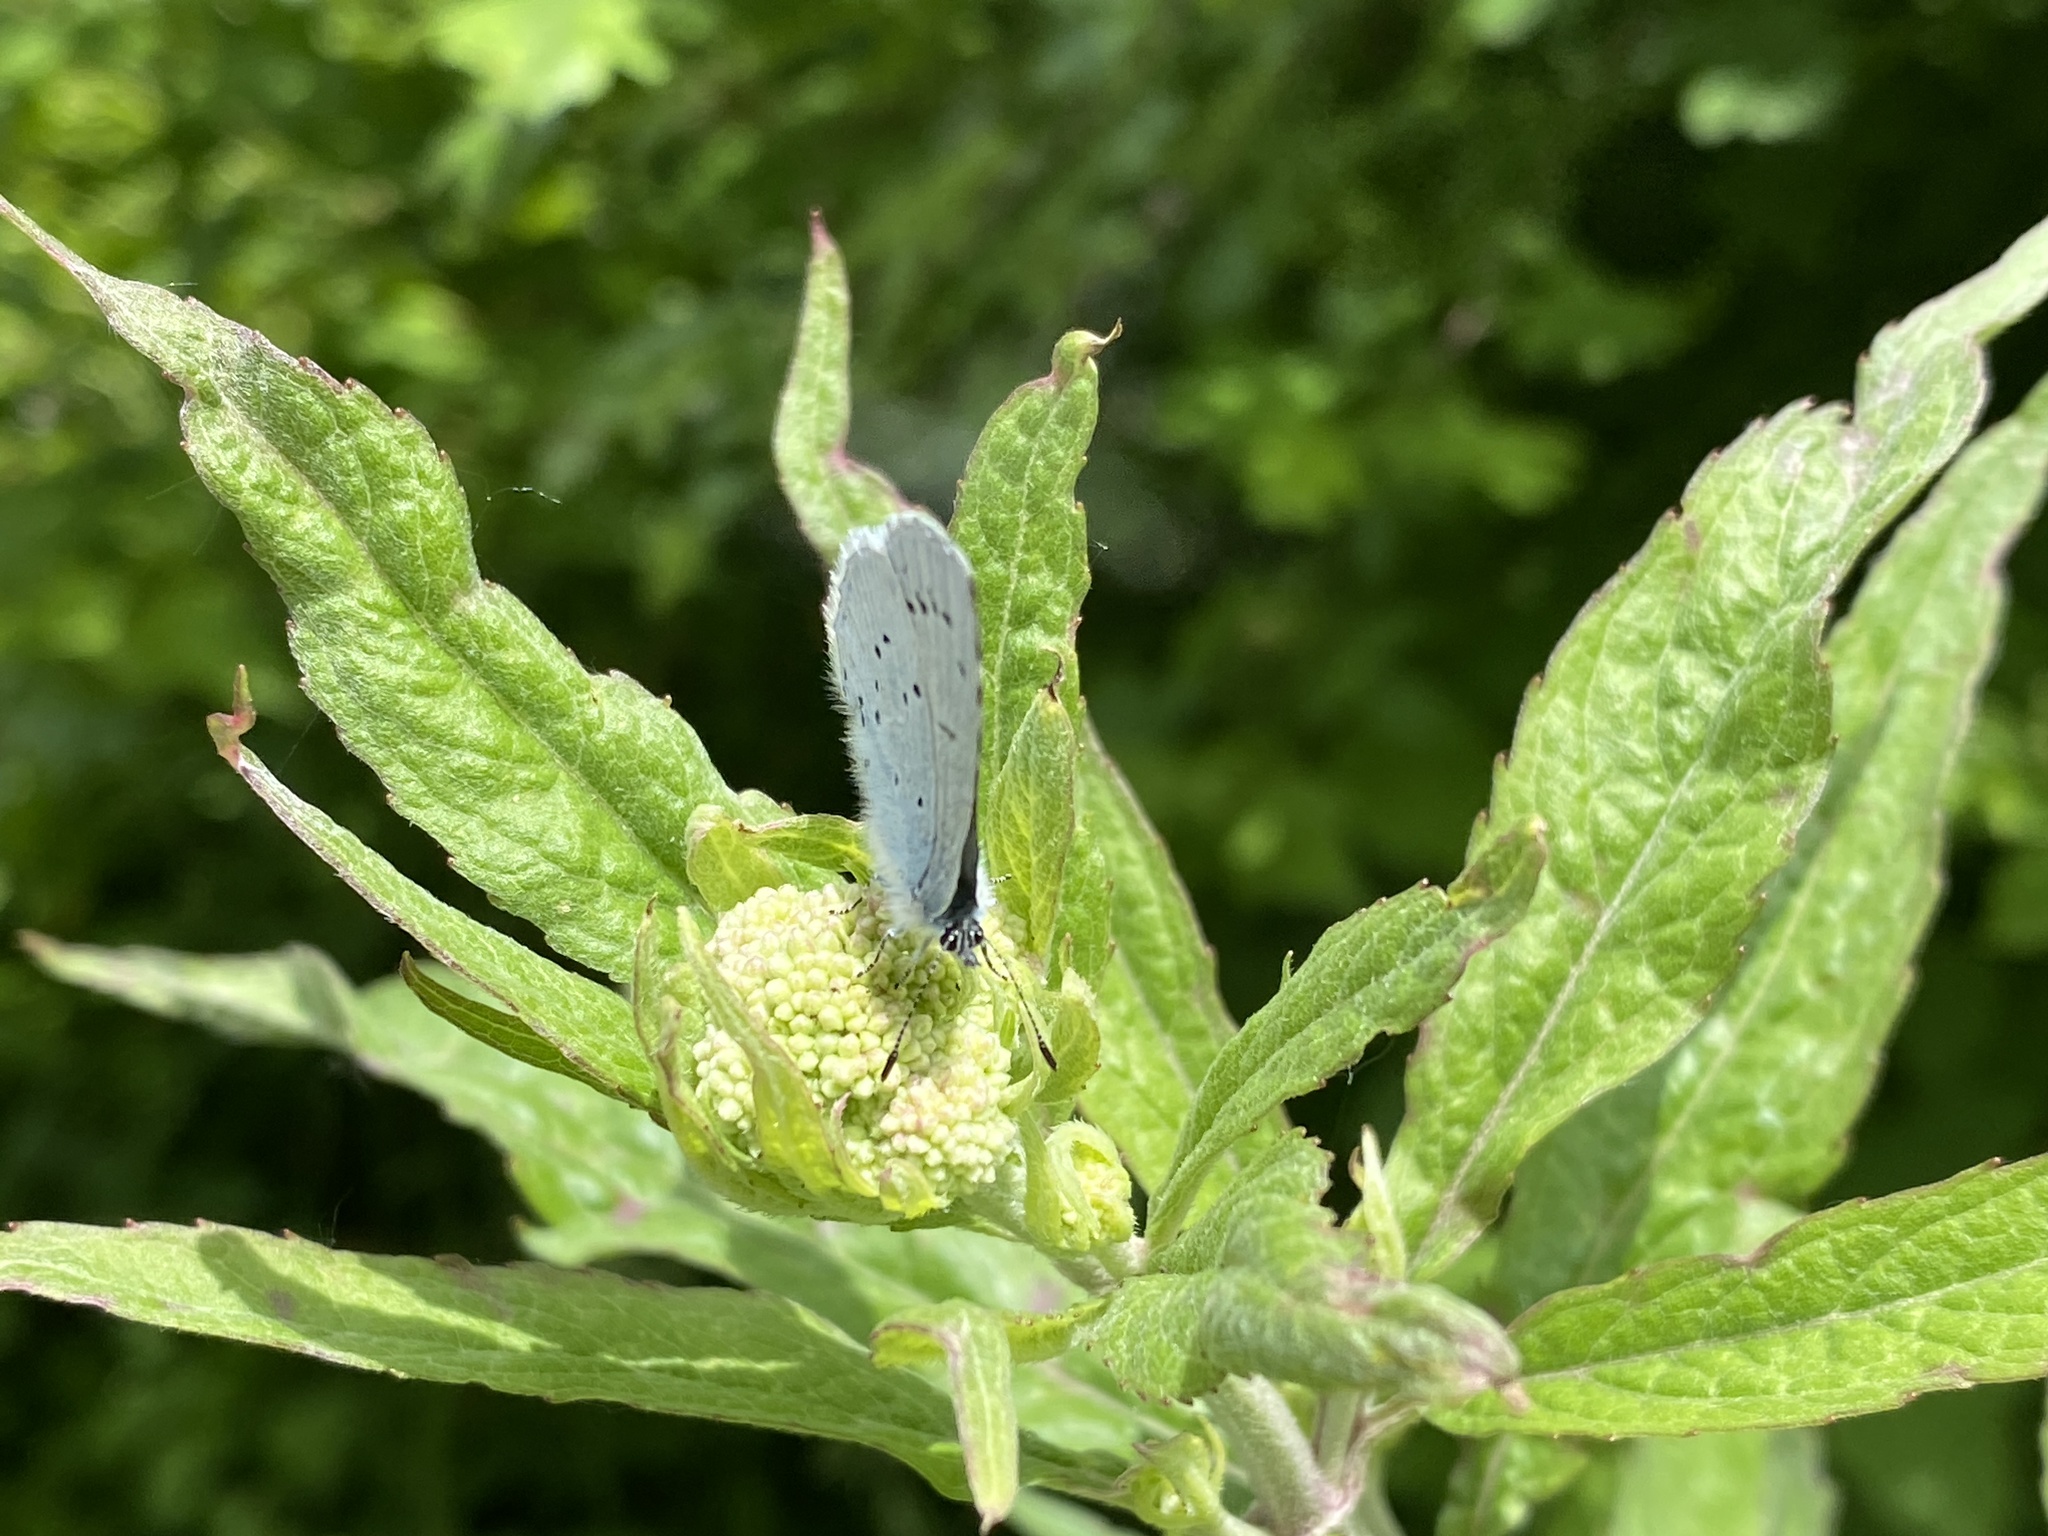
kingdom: Animalia
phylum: Arthropoda
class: Insecta
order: Lepidoptera
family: Lycaenidae
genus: Celastrina
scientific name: Celastrina argiolus
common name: Holly blue
